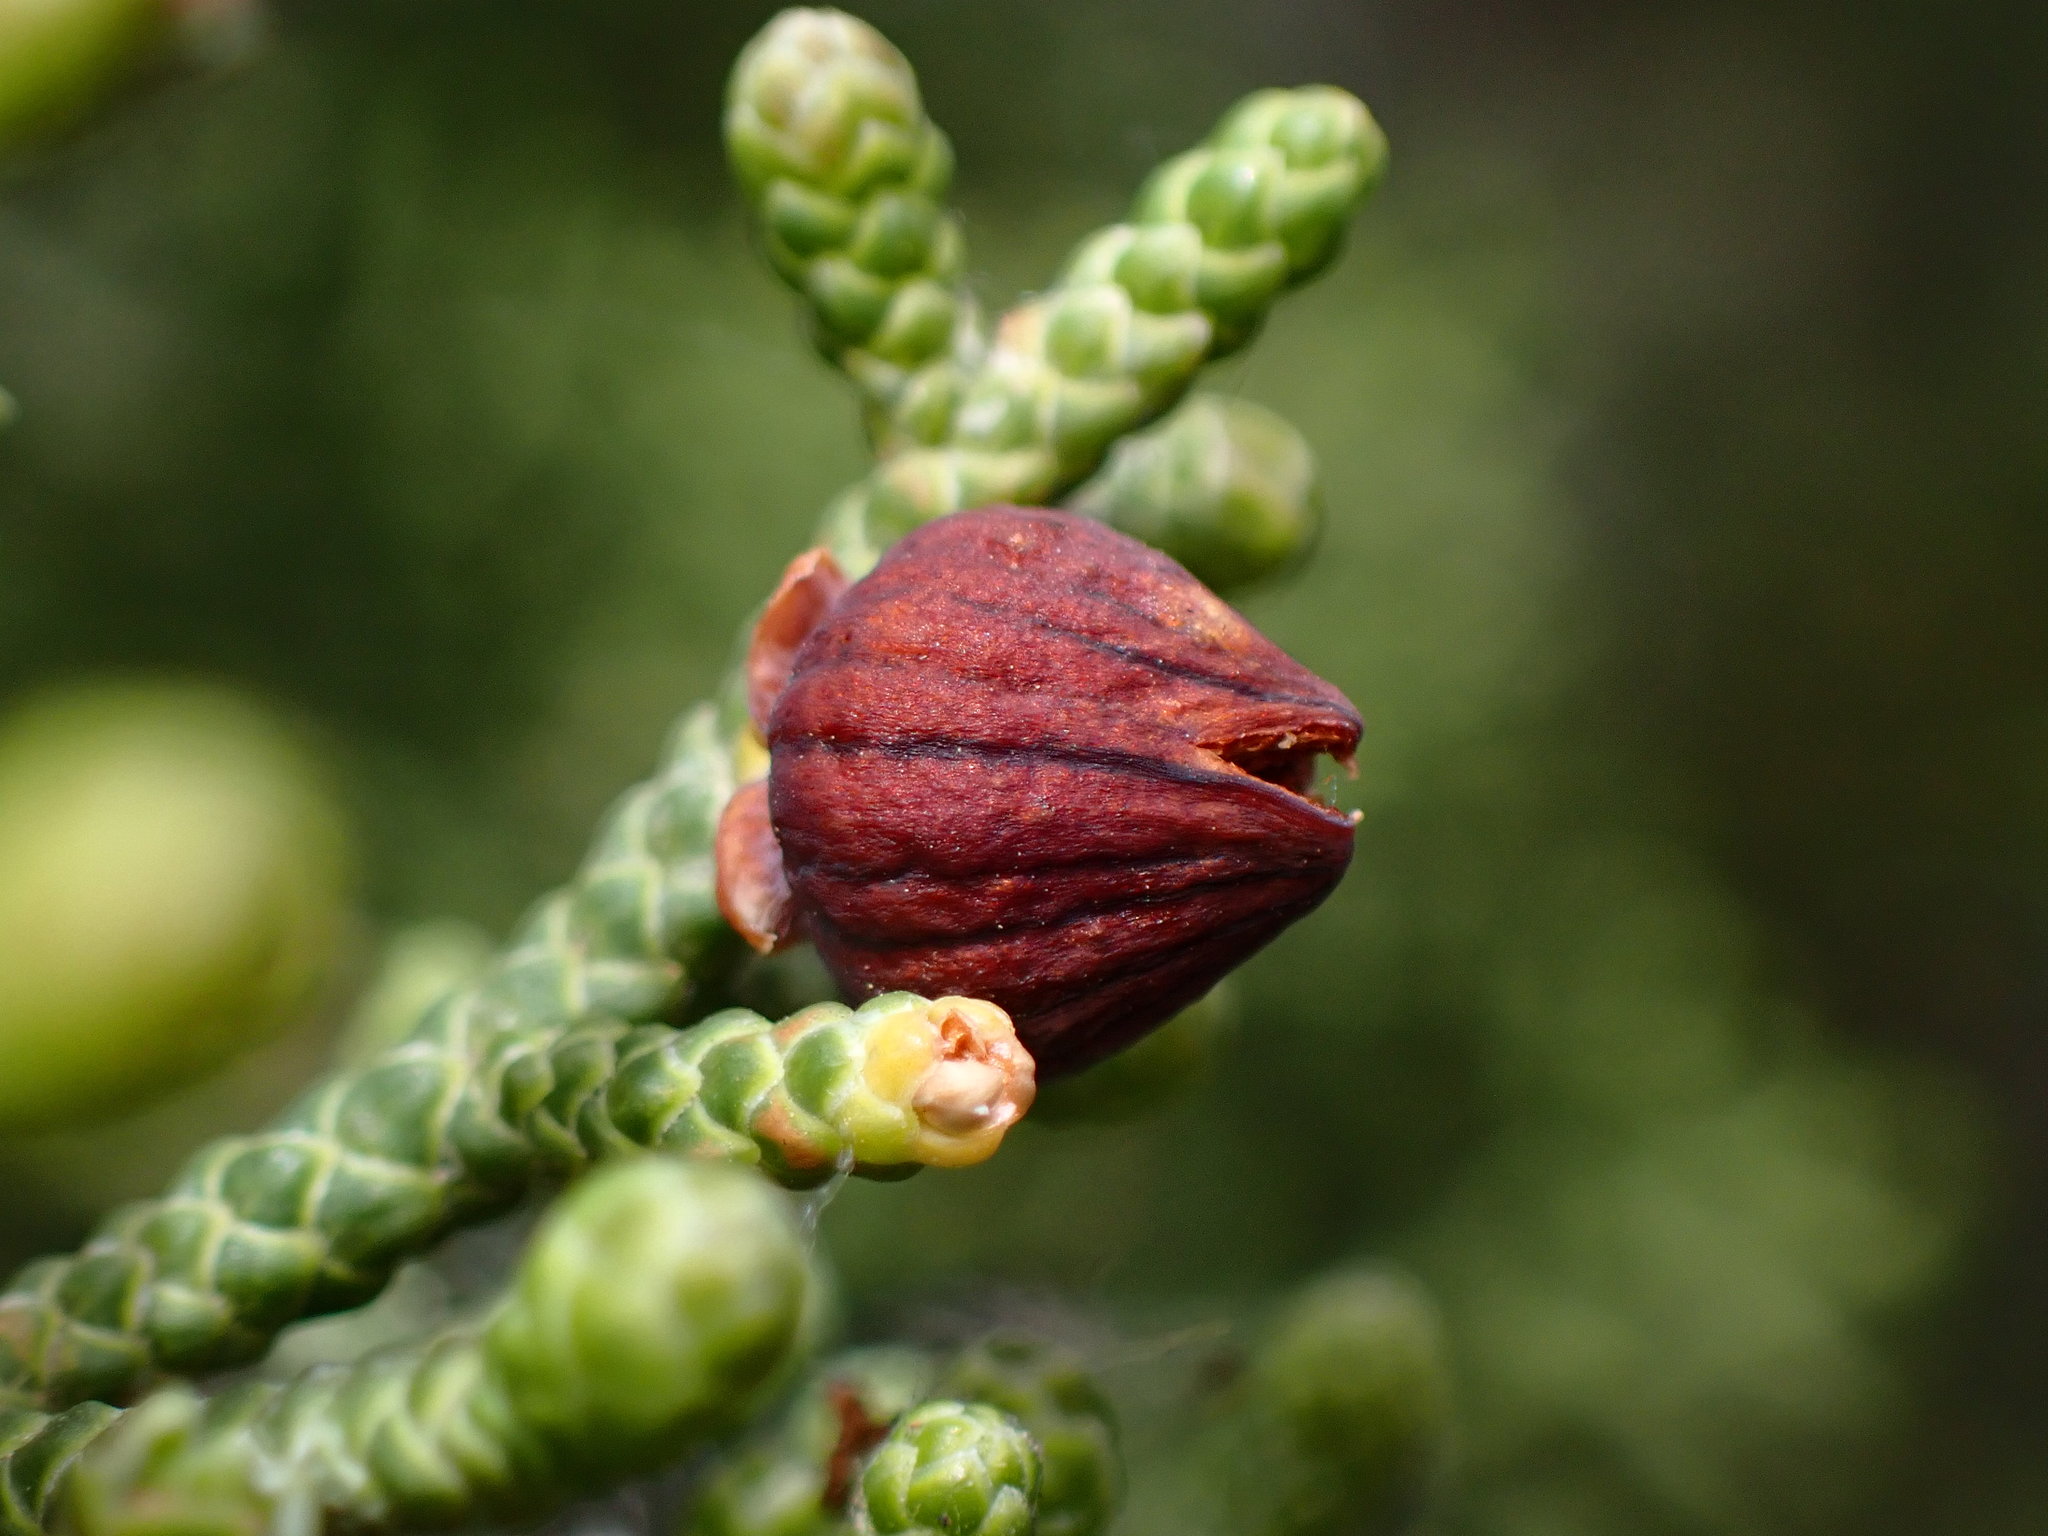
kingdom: Animalia
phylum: Arthropoda
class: Insecta
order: Diptera
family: Cecidomyiidae
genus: Walshomyia
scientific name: Walshomyia juniperina
